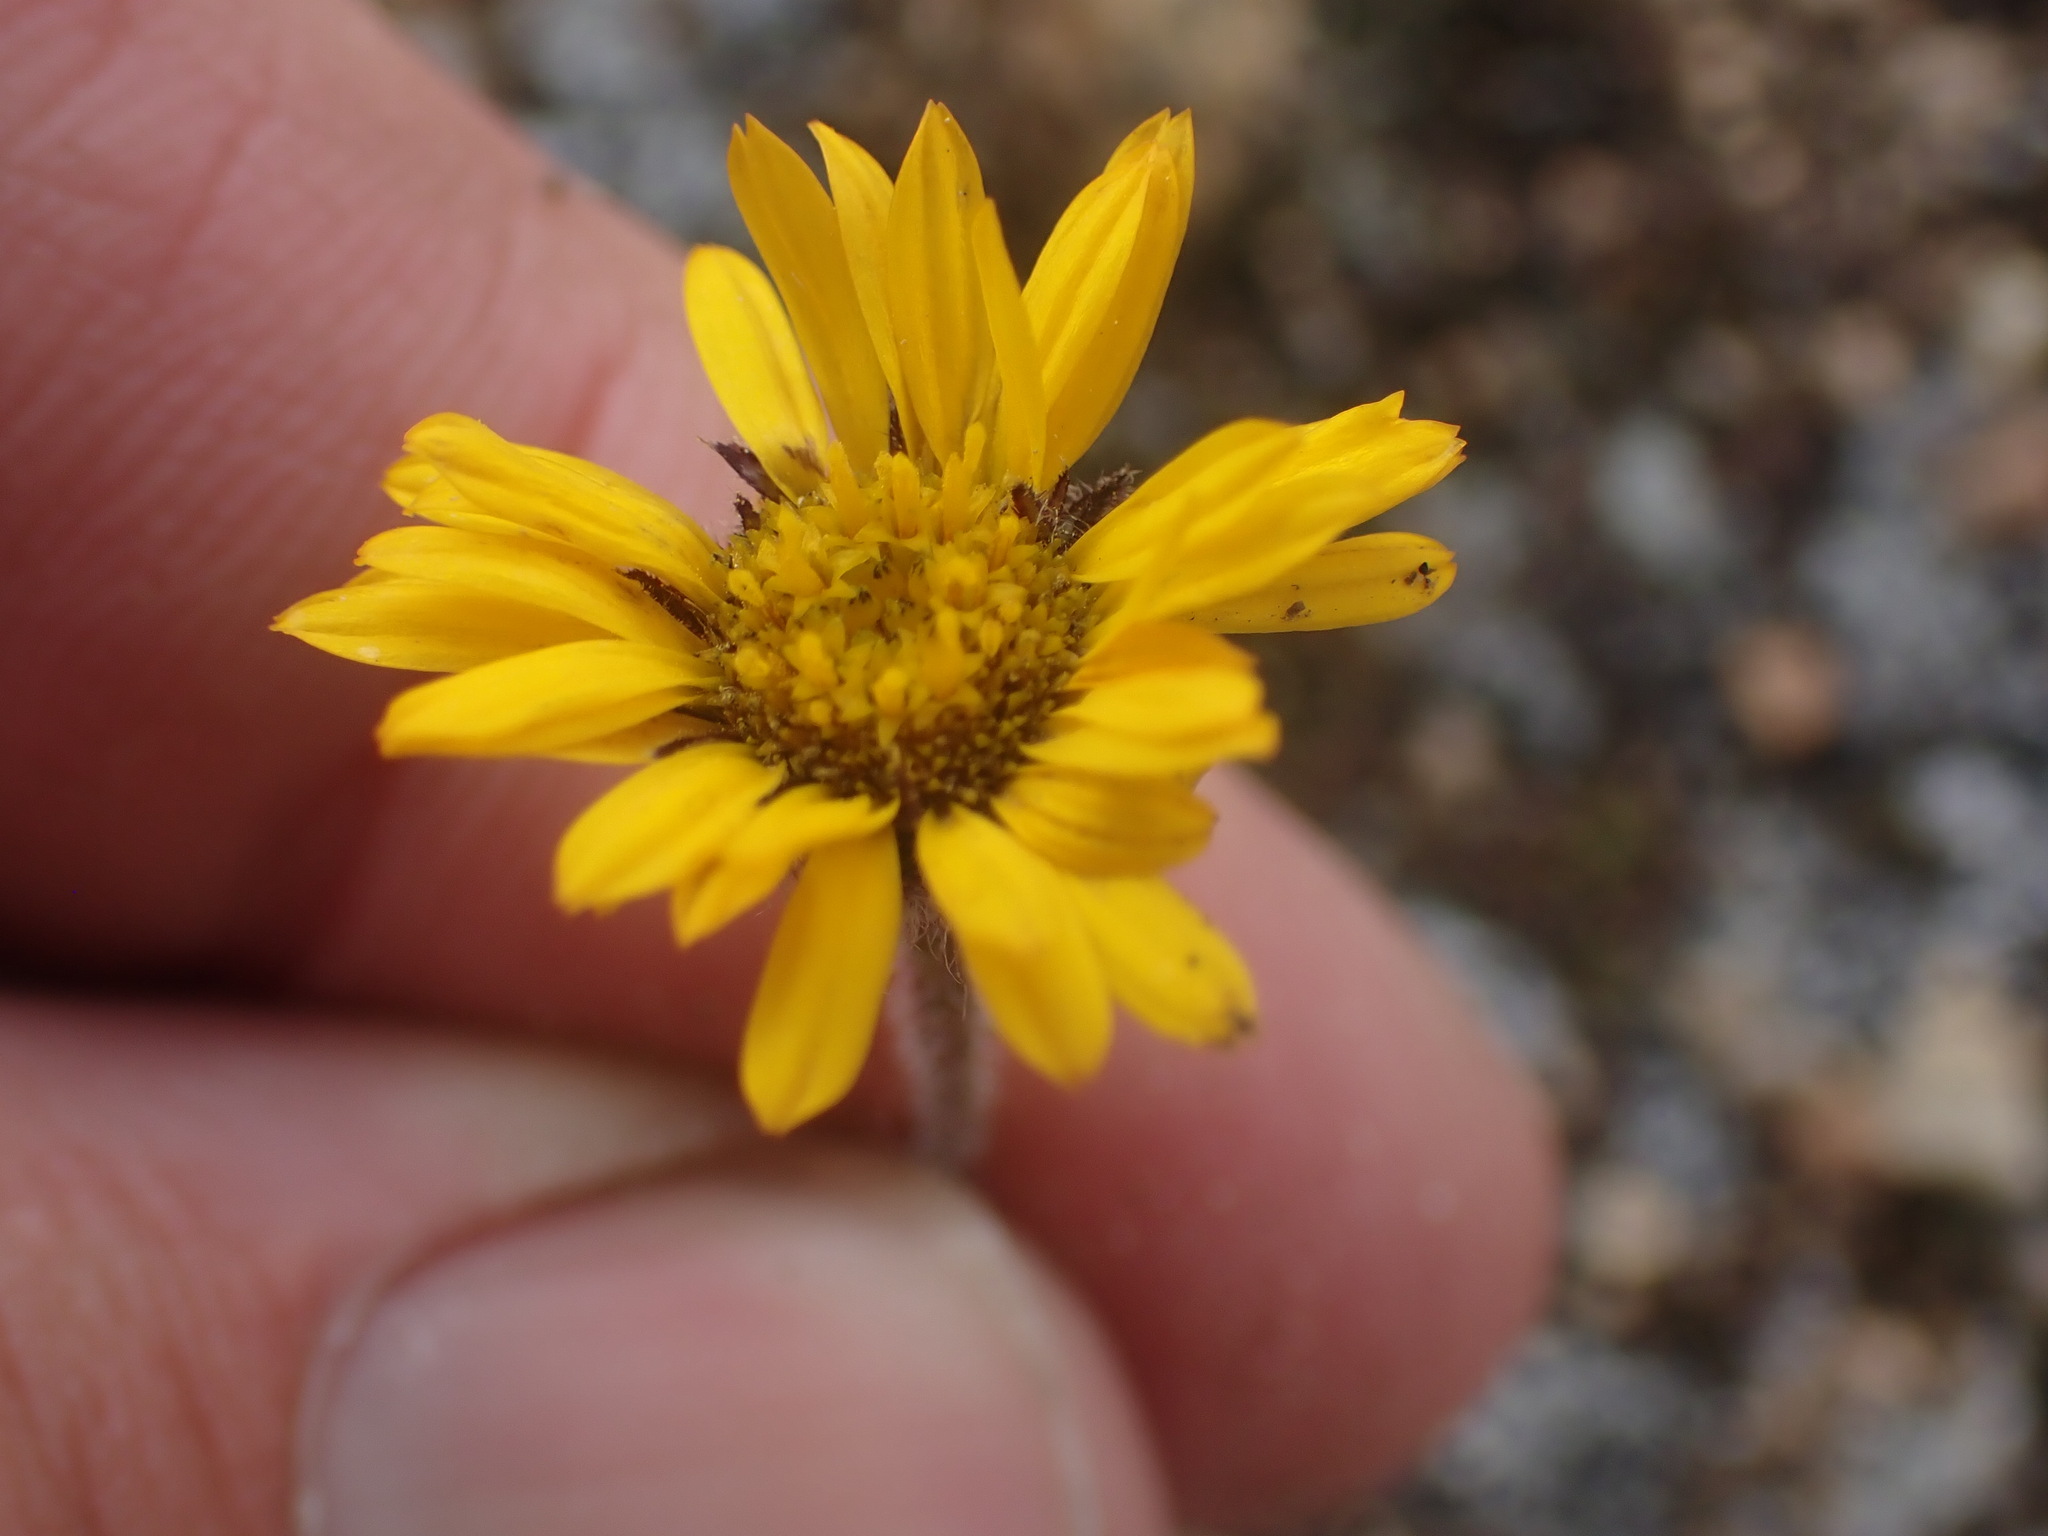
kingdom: Plantae
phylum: Tracheophyta
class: Magnoliopsida
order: Asterales
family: Asteraceae
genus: Erigeron
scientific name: Erigeron aureus
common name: Alpine yellow fleabane
